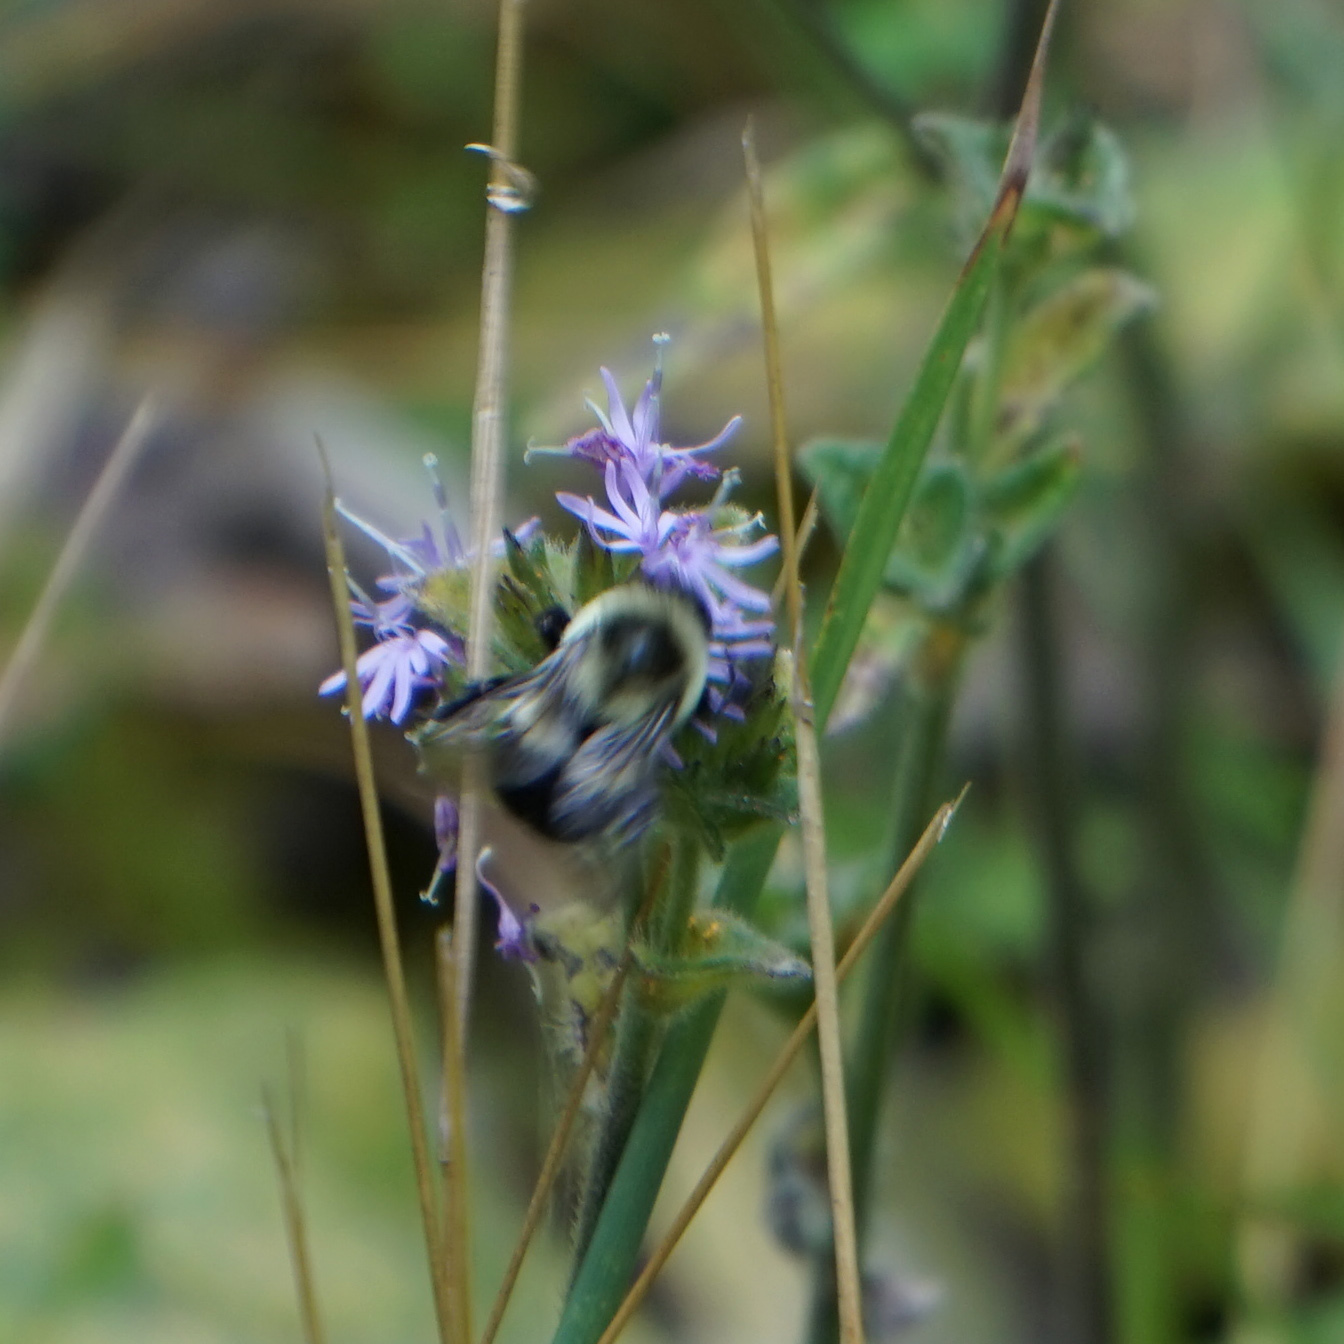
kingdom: Animalia
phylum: Arthropoda
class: Insecta
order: Hymenoptera
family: Apidae
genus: Bombus
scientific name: Bombus impatiens
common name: Common eastern bumble bee
